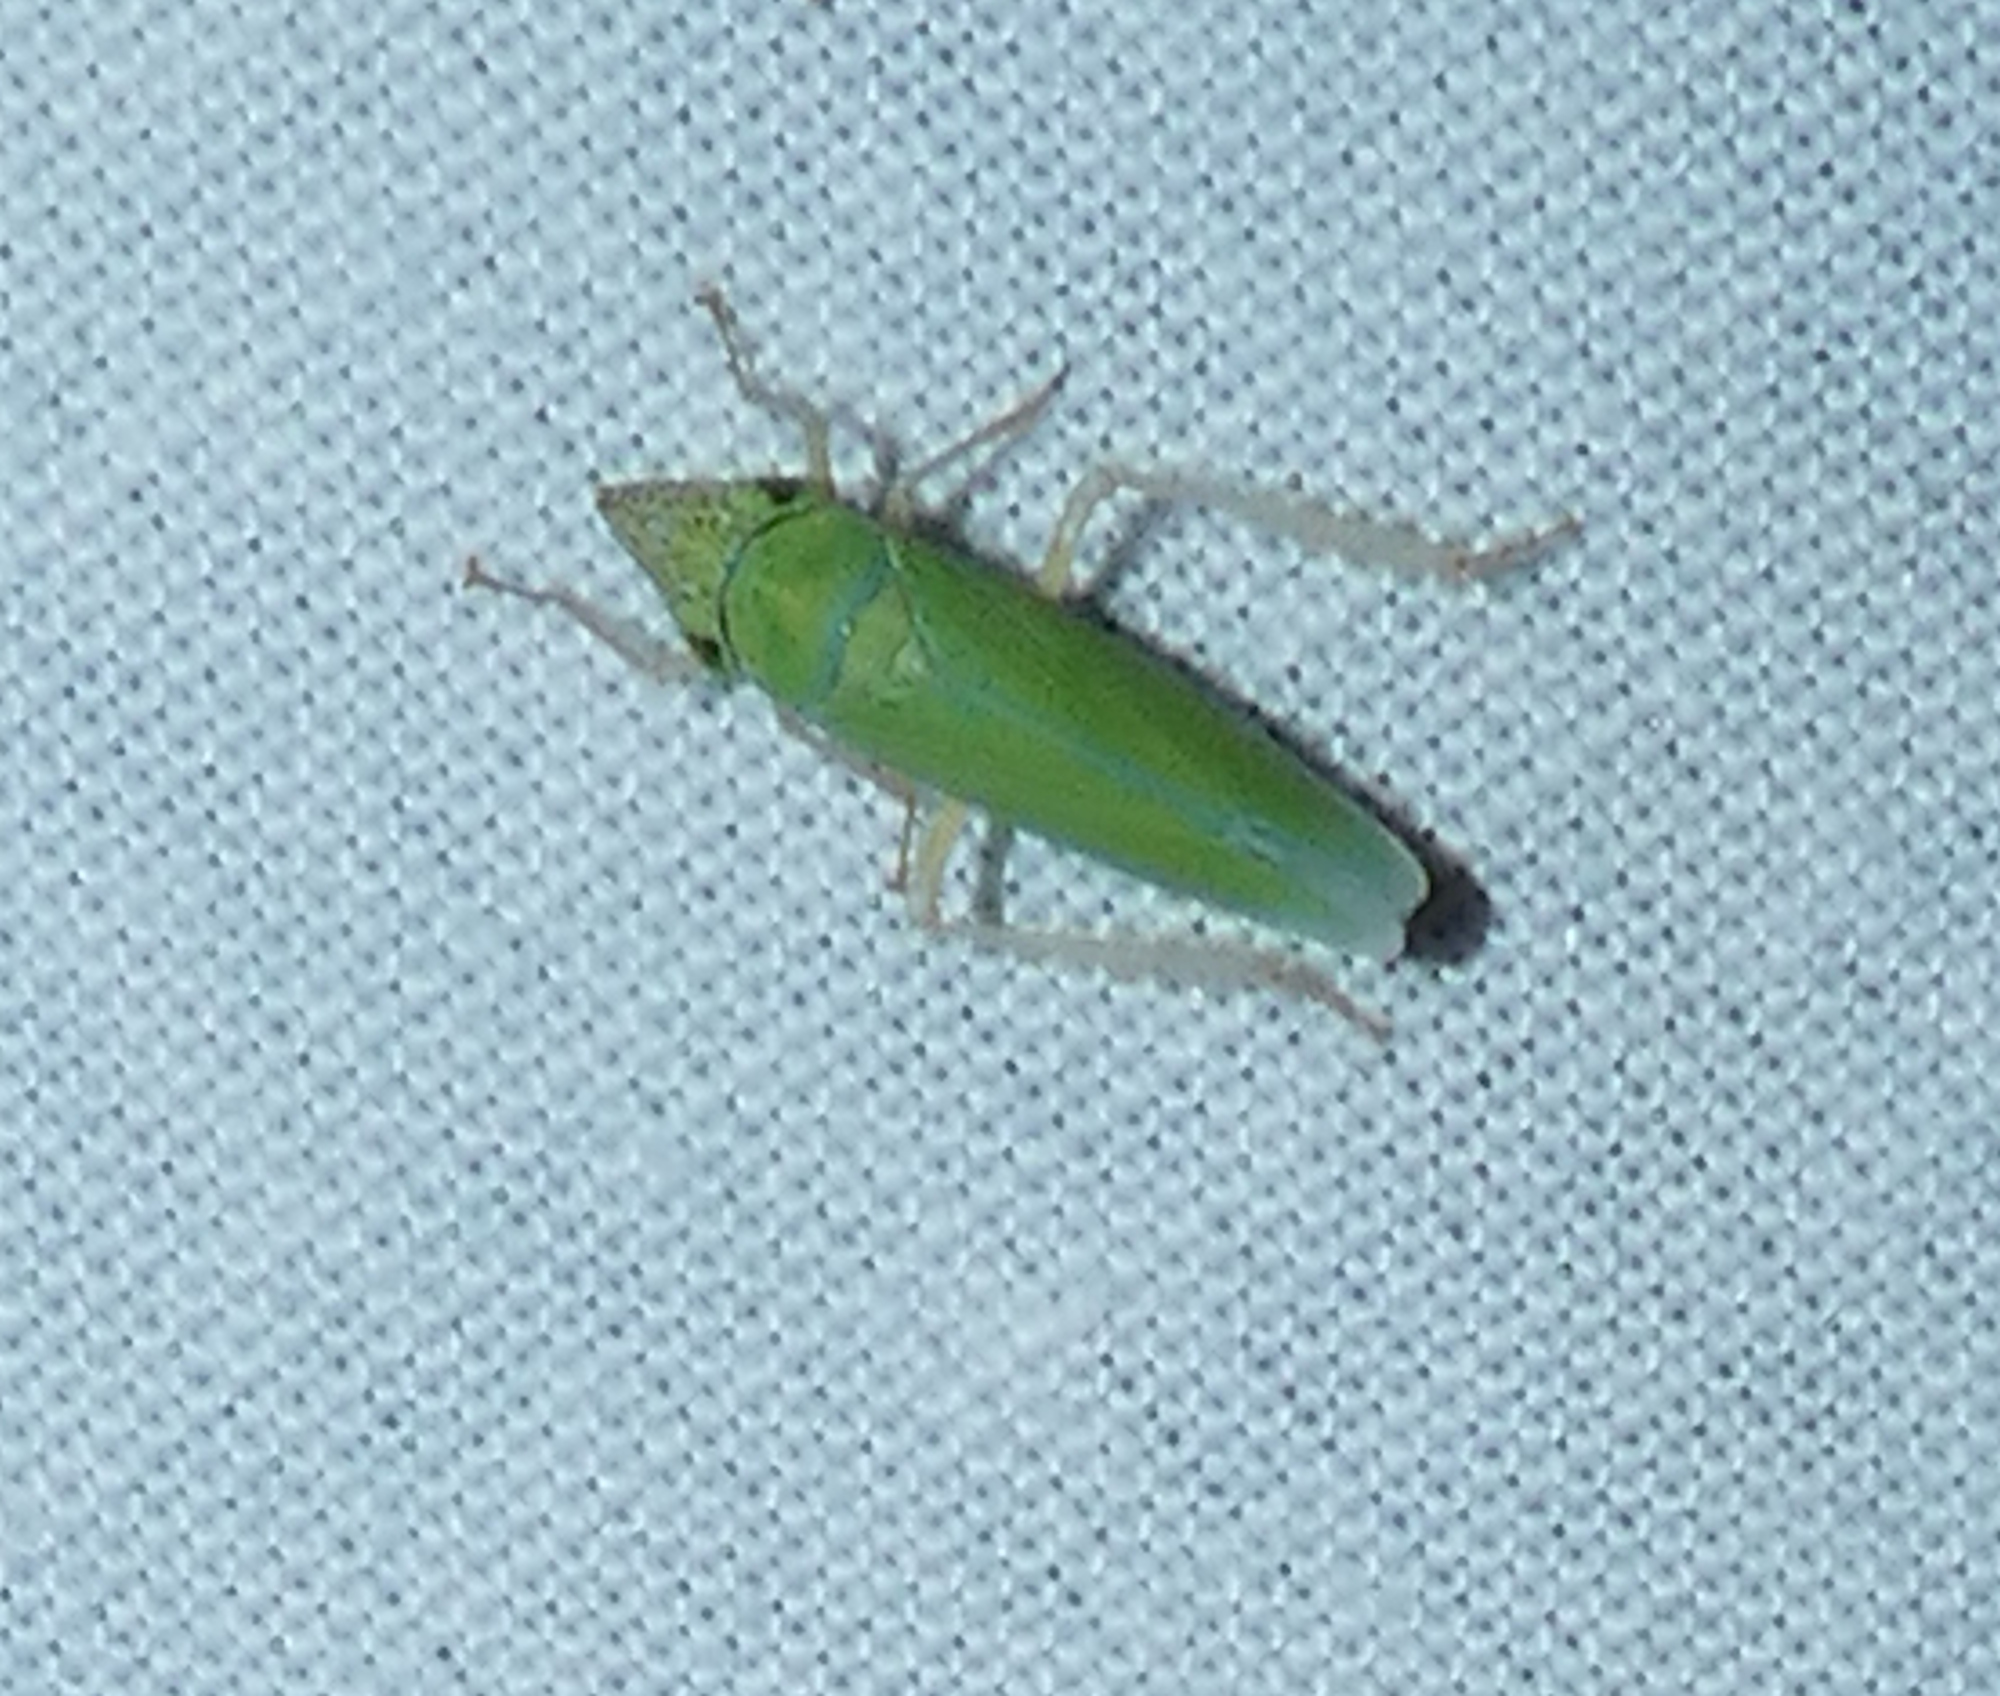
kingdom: Animalia
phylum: Arthropoda
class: Insecta
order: Hemiptera
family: Cicadellidae
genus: Draeculacephala
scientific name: Draeculacephala floridana
